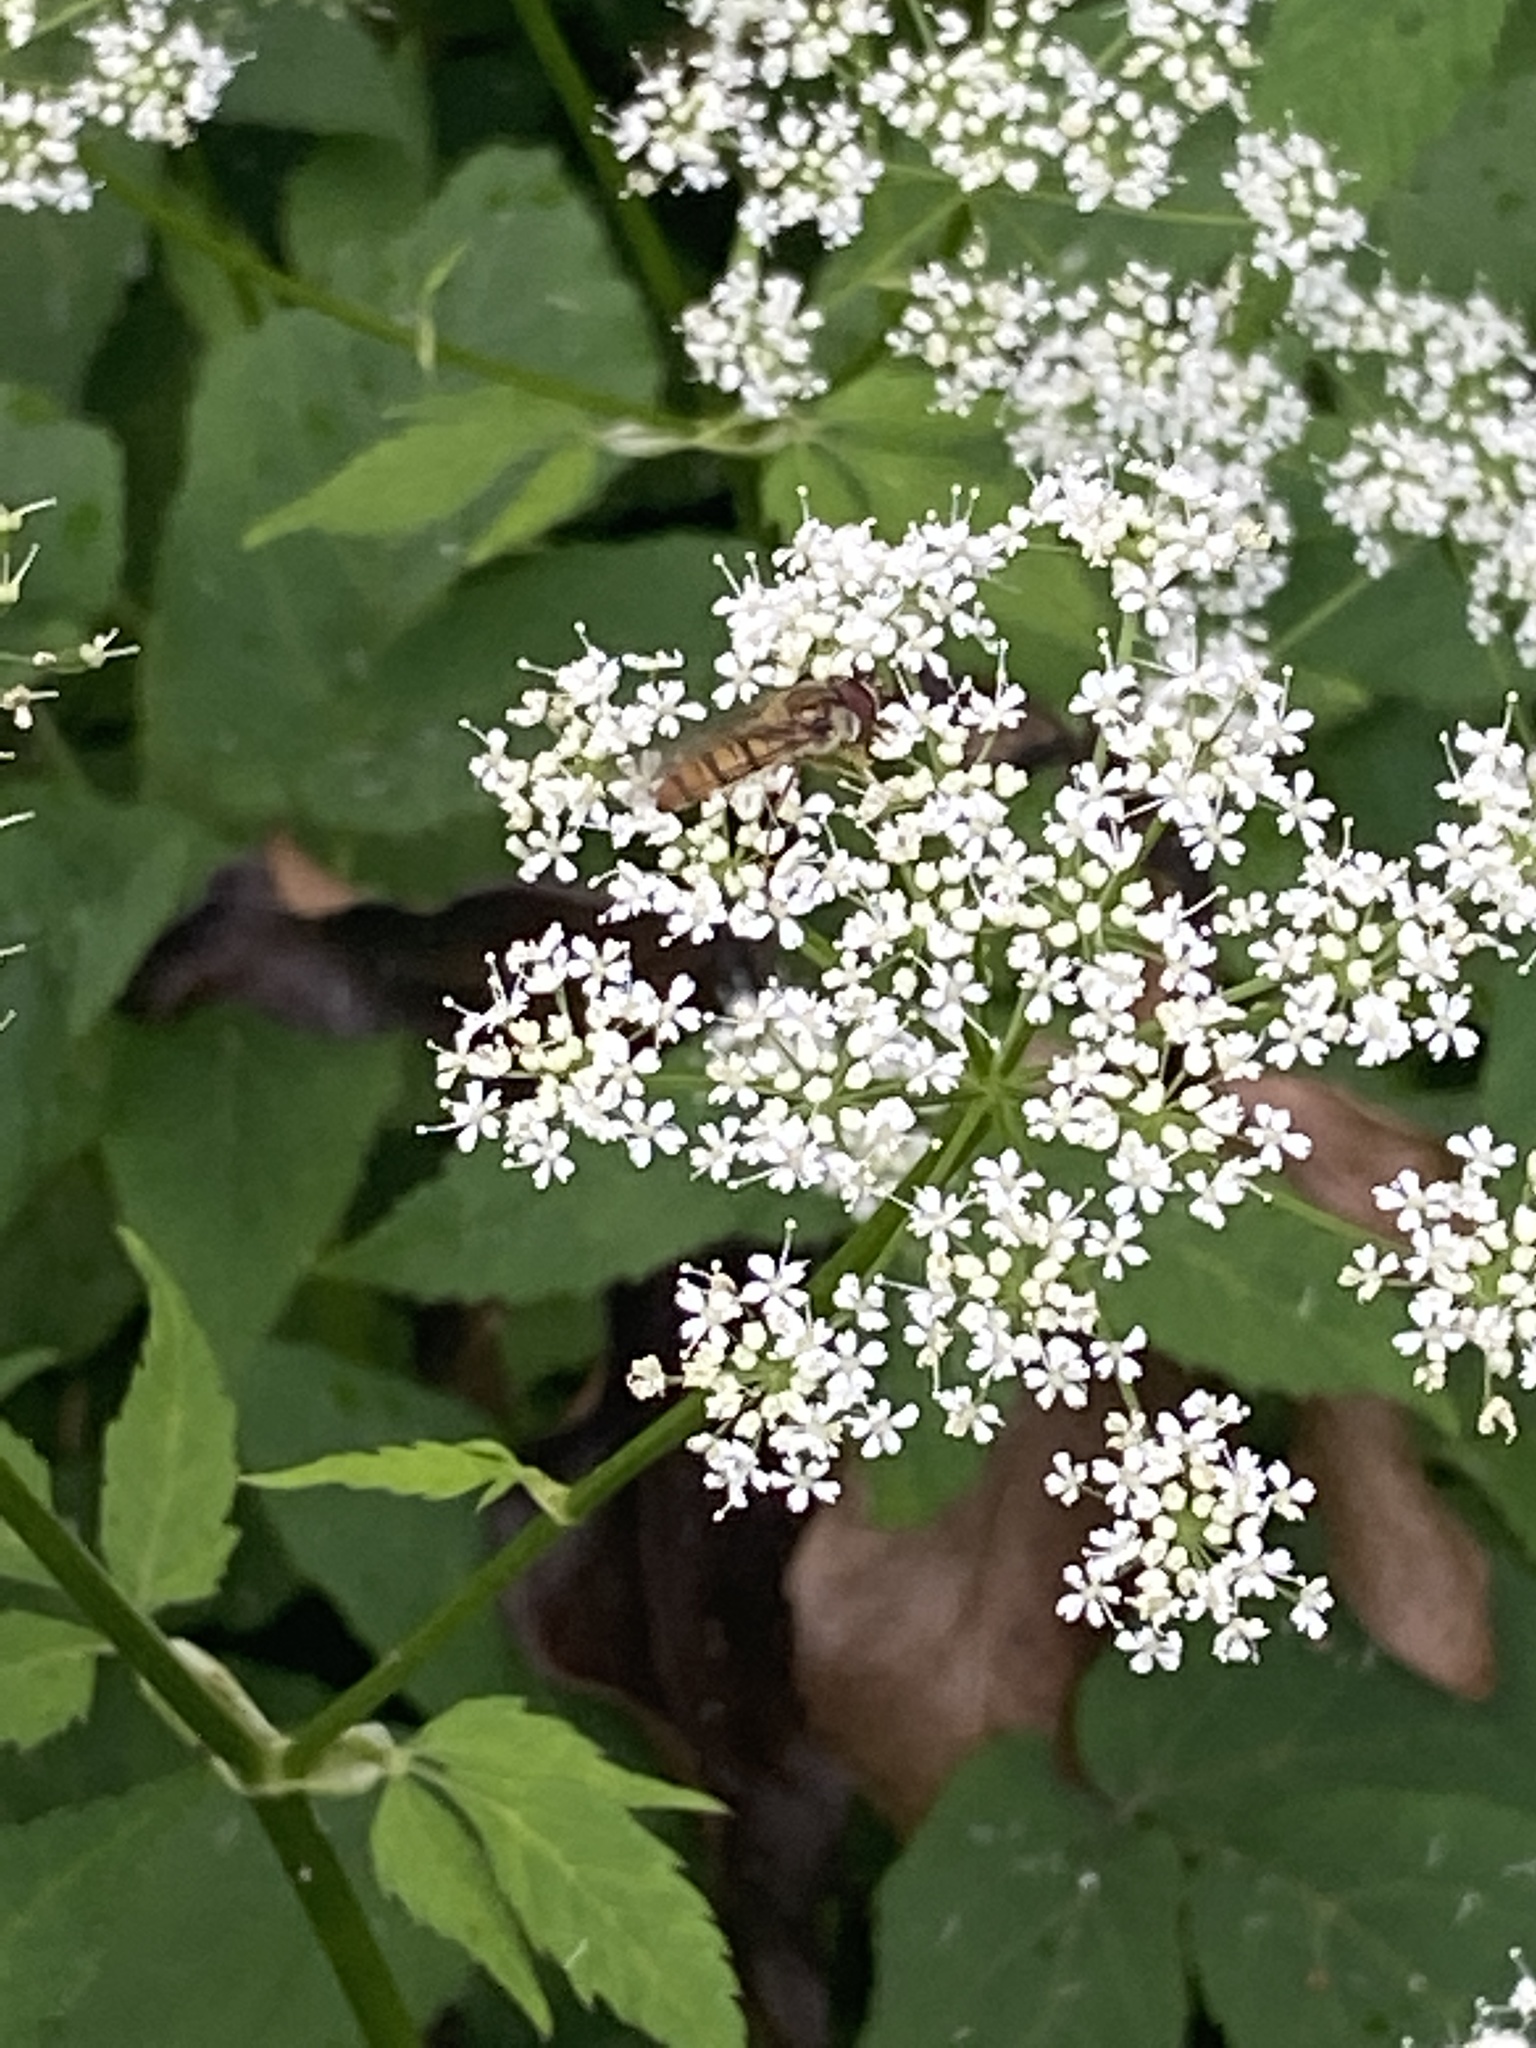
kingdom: Plantae
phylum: Tracheophyta
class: Magnoliopsida
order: Apiales
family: Apiaceae
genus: Aegopodium
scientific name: Aegopodium podagraria
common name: Ground-elder
